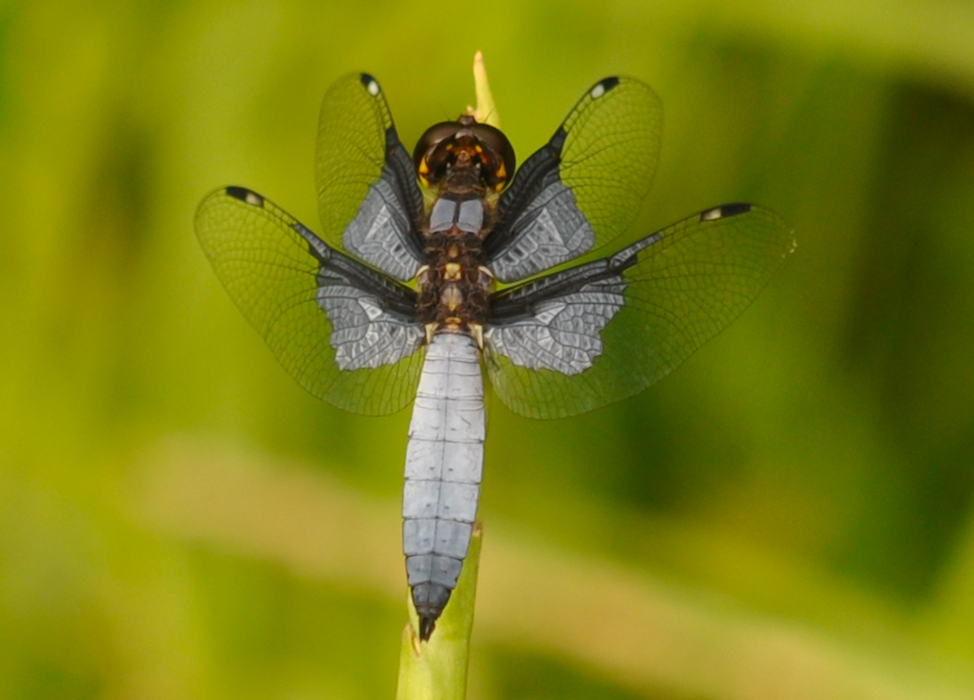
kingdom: Animalia
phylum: Arthropoda
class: Insecta
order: Odonata
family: Libellulidae
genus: Palpopleura
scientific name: Palpopleura vestita
